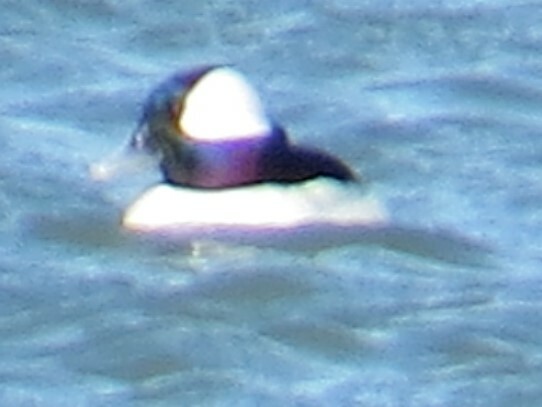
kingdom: Animalia
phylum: Chordata
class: Aves
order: Anseriformes
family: Anatidae
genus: Bucephala
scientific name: Bucephala albeola
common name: Bufflehead
